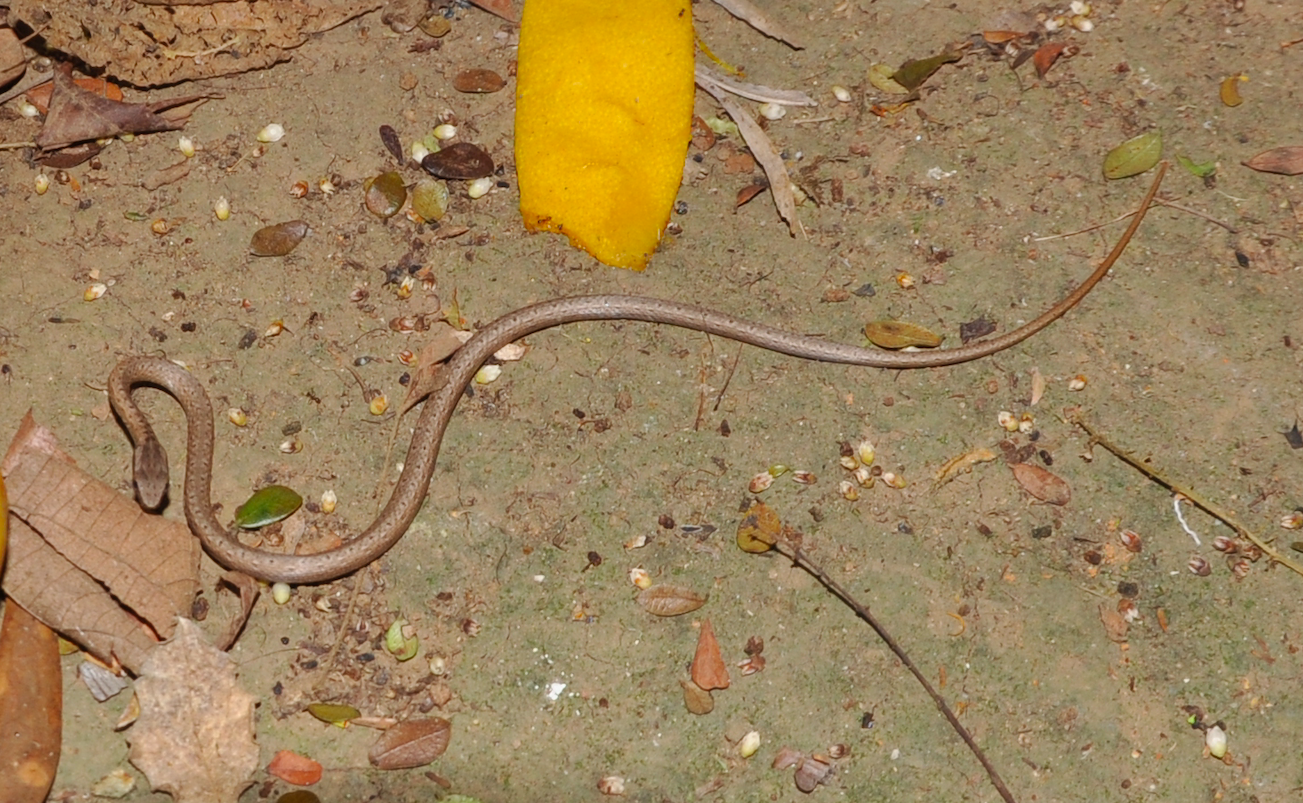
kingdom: Animalia
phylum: Chordata
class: Squamata
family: Psammophiidae
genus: Mimophis
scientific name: Mimophis mahfalensis
